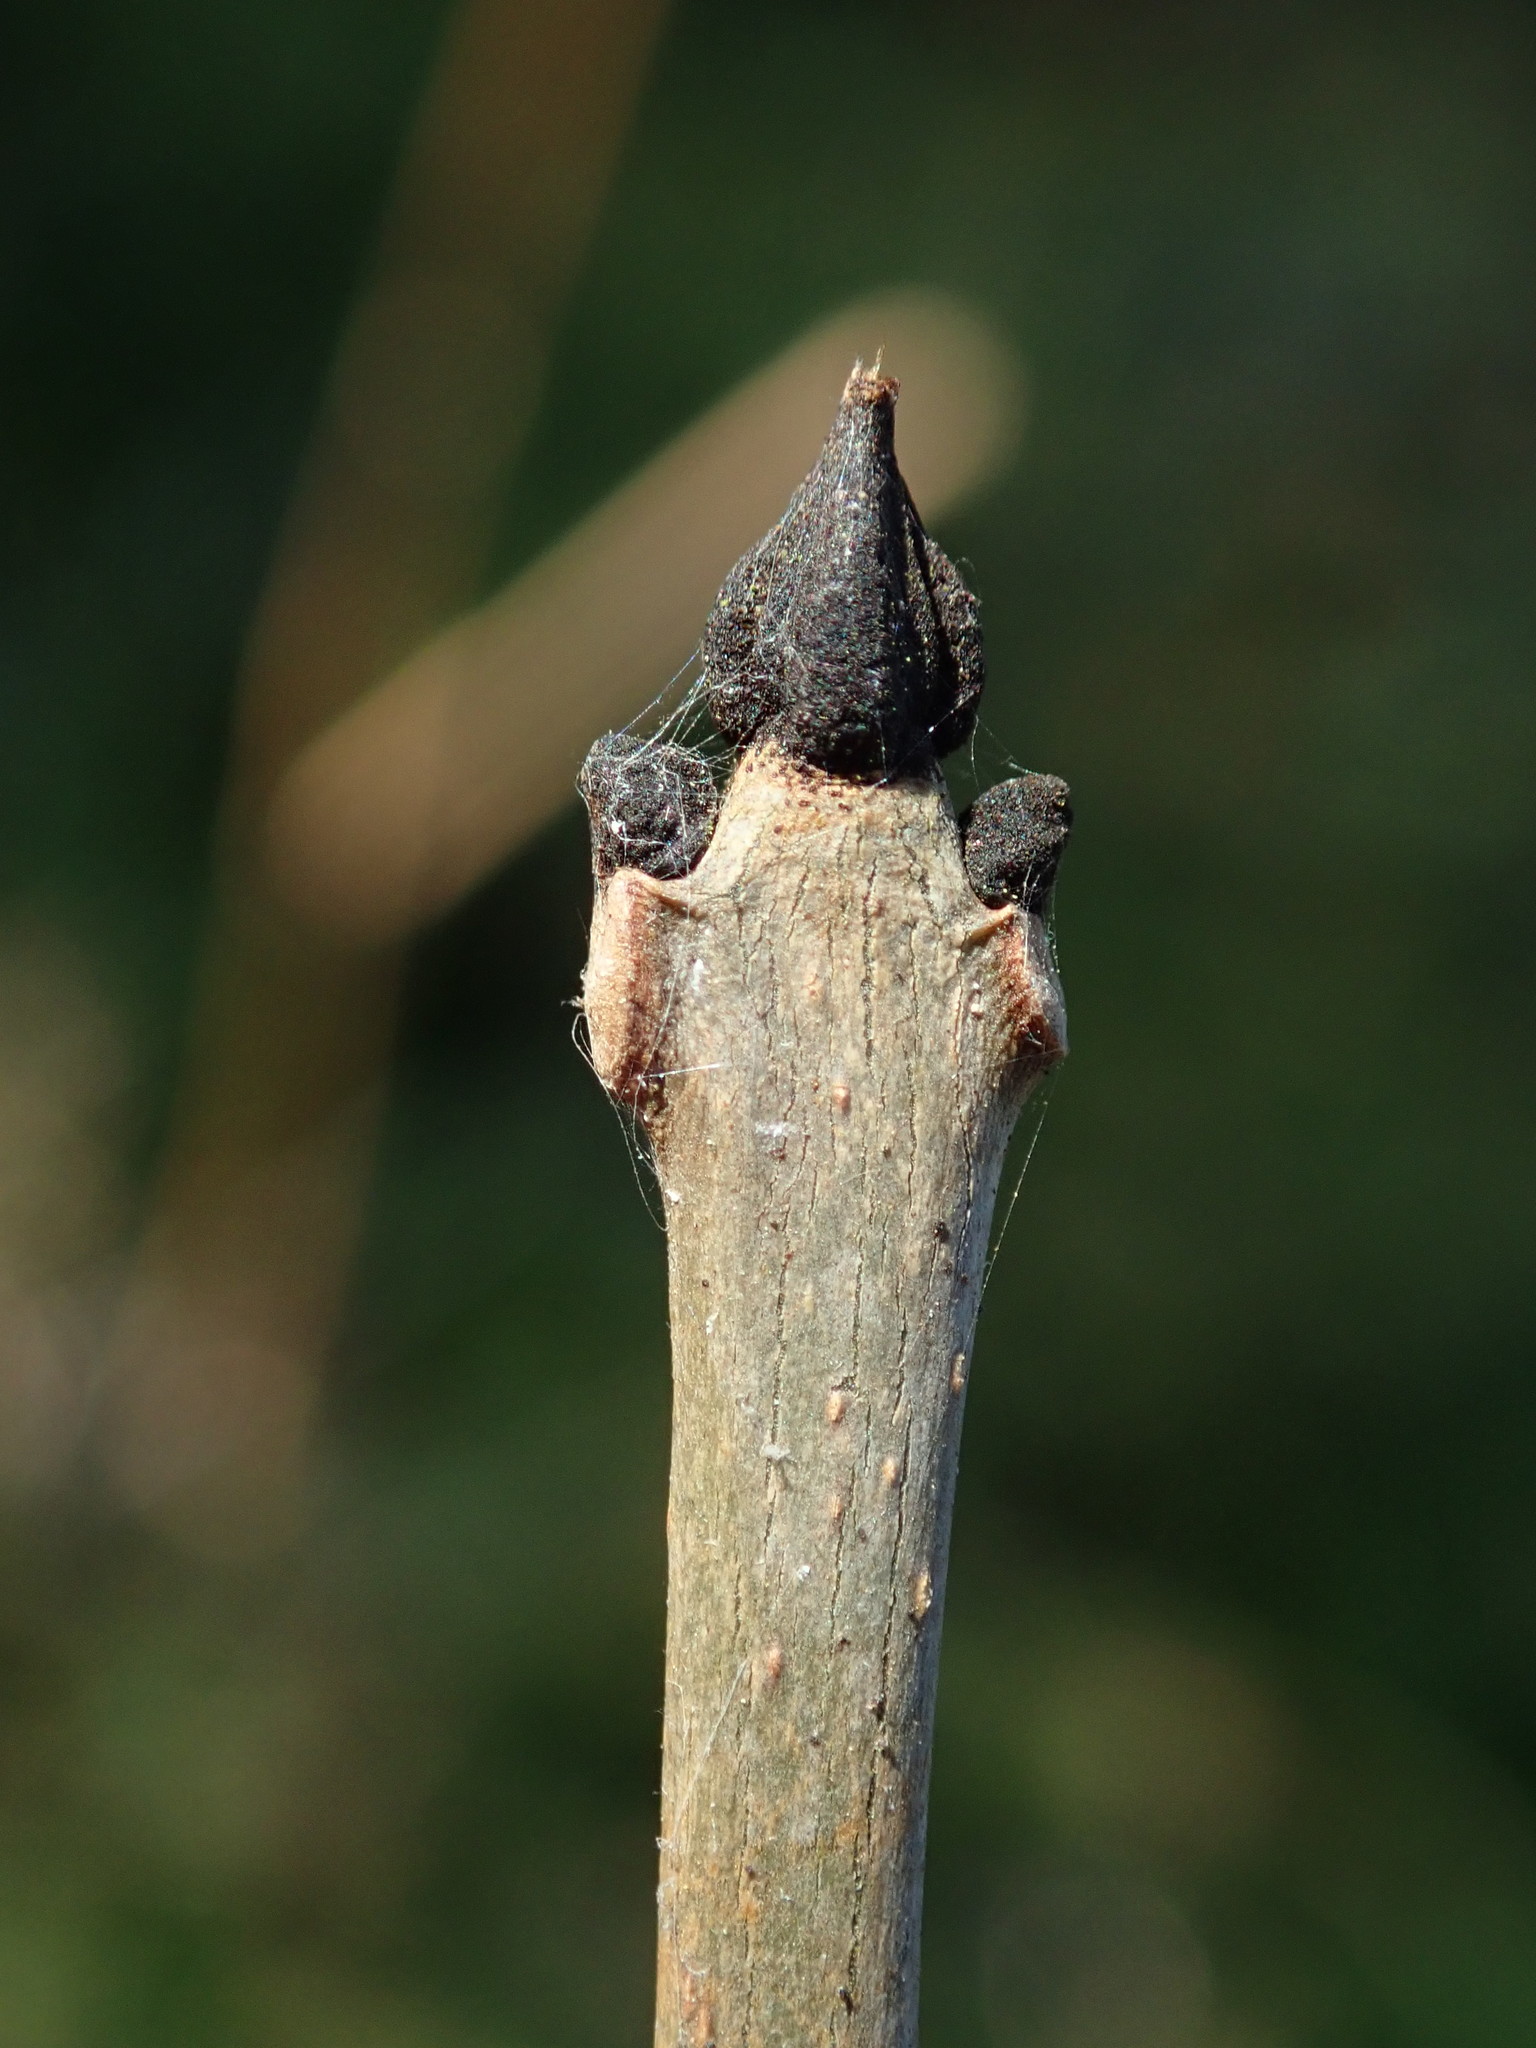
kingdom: Plantae
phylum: Tracheophyta
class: Magnoliopsida
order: Lamiales
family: Oleaceae
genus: Fraxinus
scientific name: Fraxinus excelsior
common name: European ash
